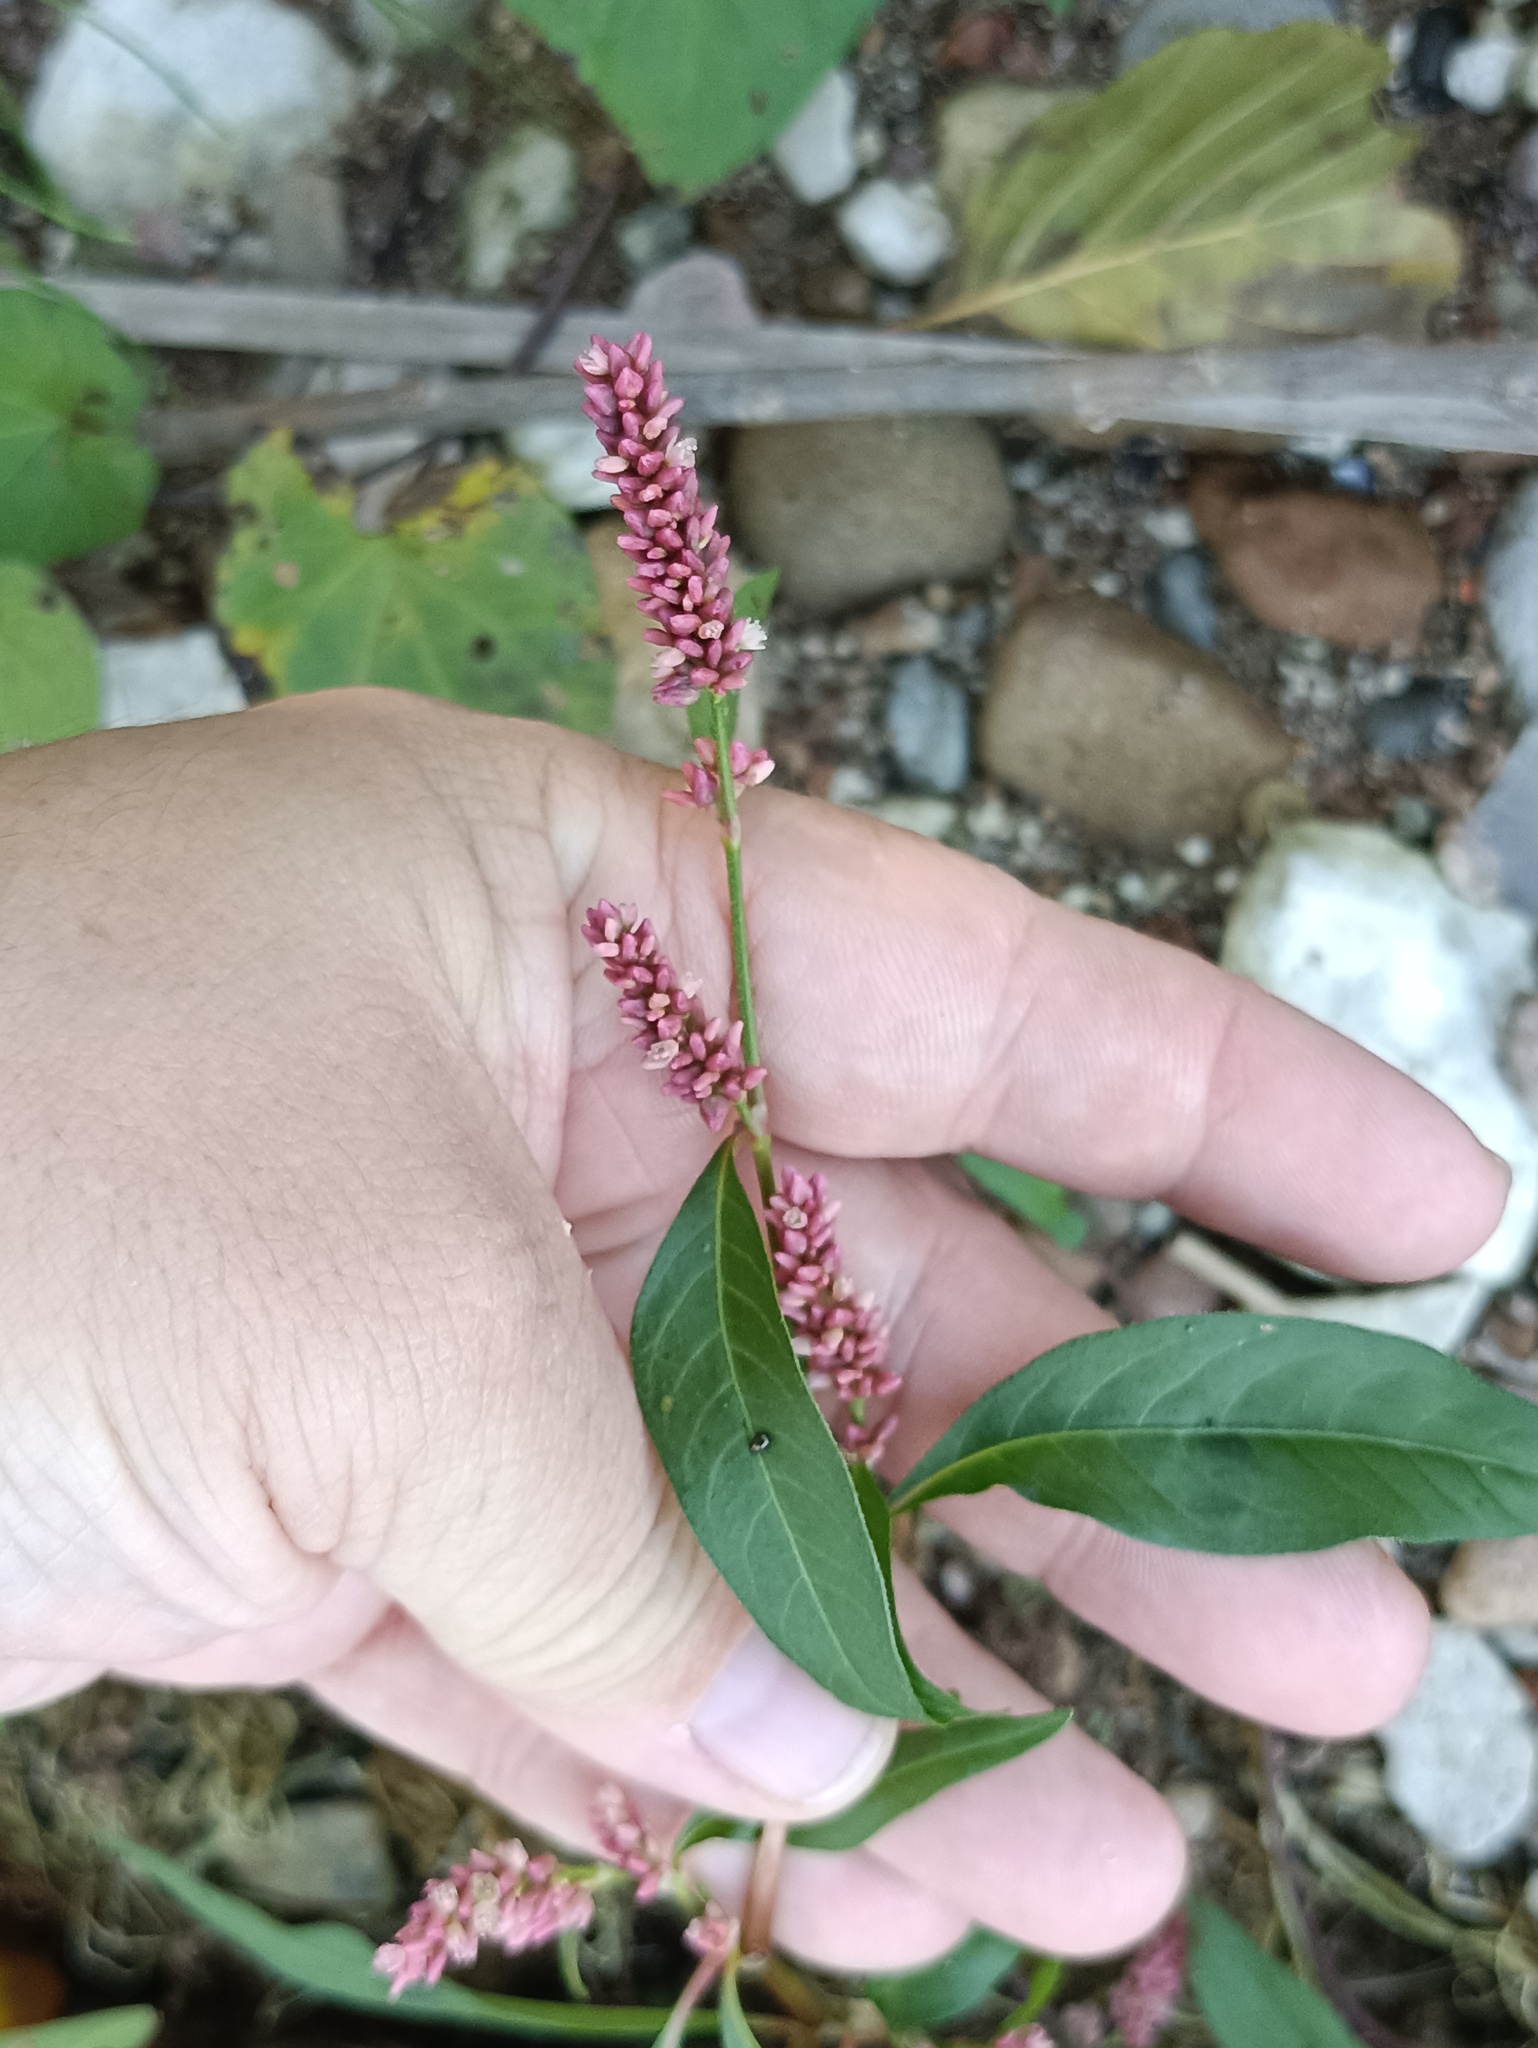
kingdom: Plantae
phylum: Tracheophyta
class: Magnoliopsida
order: Caryophyllales
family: Polygonaceae
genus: Persicaria
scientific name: Persicaria maculosa
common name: Redshank
